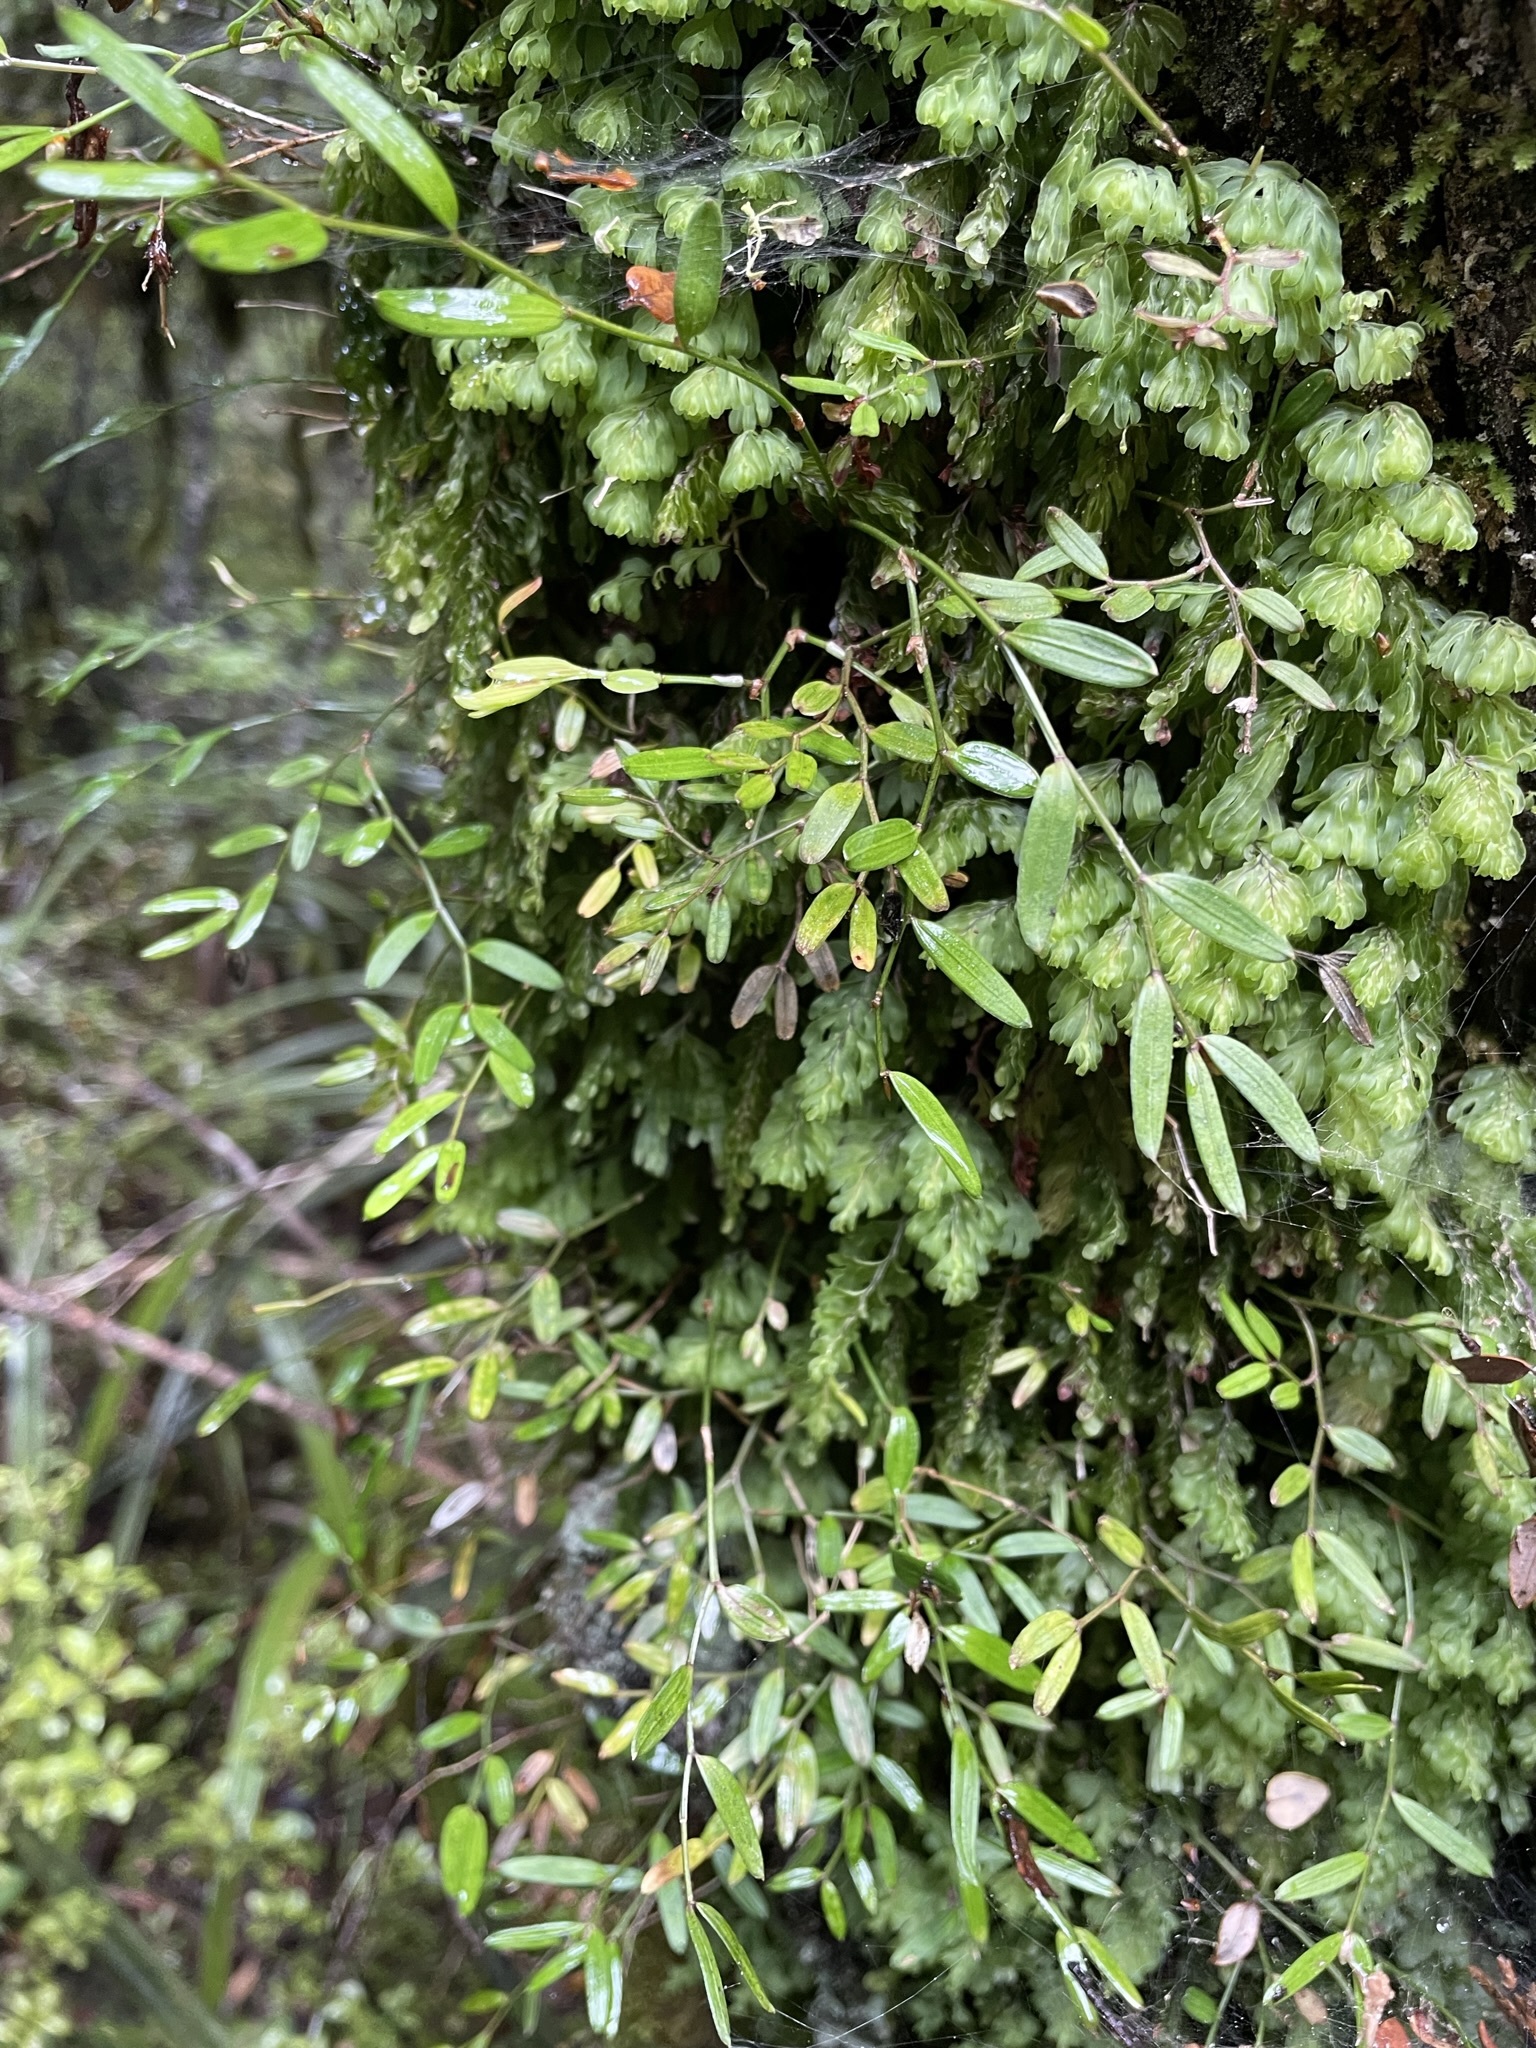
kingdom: Plantae
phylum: Tracheophyta
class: Liliopsida
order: Liliales
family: Alstroemeriaceae
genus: Luzuriaga
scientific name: Luzuriaga parviflora
